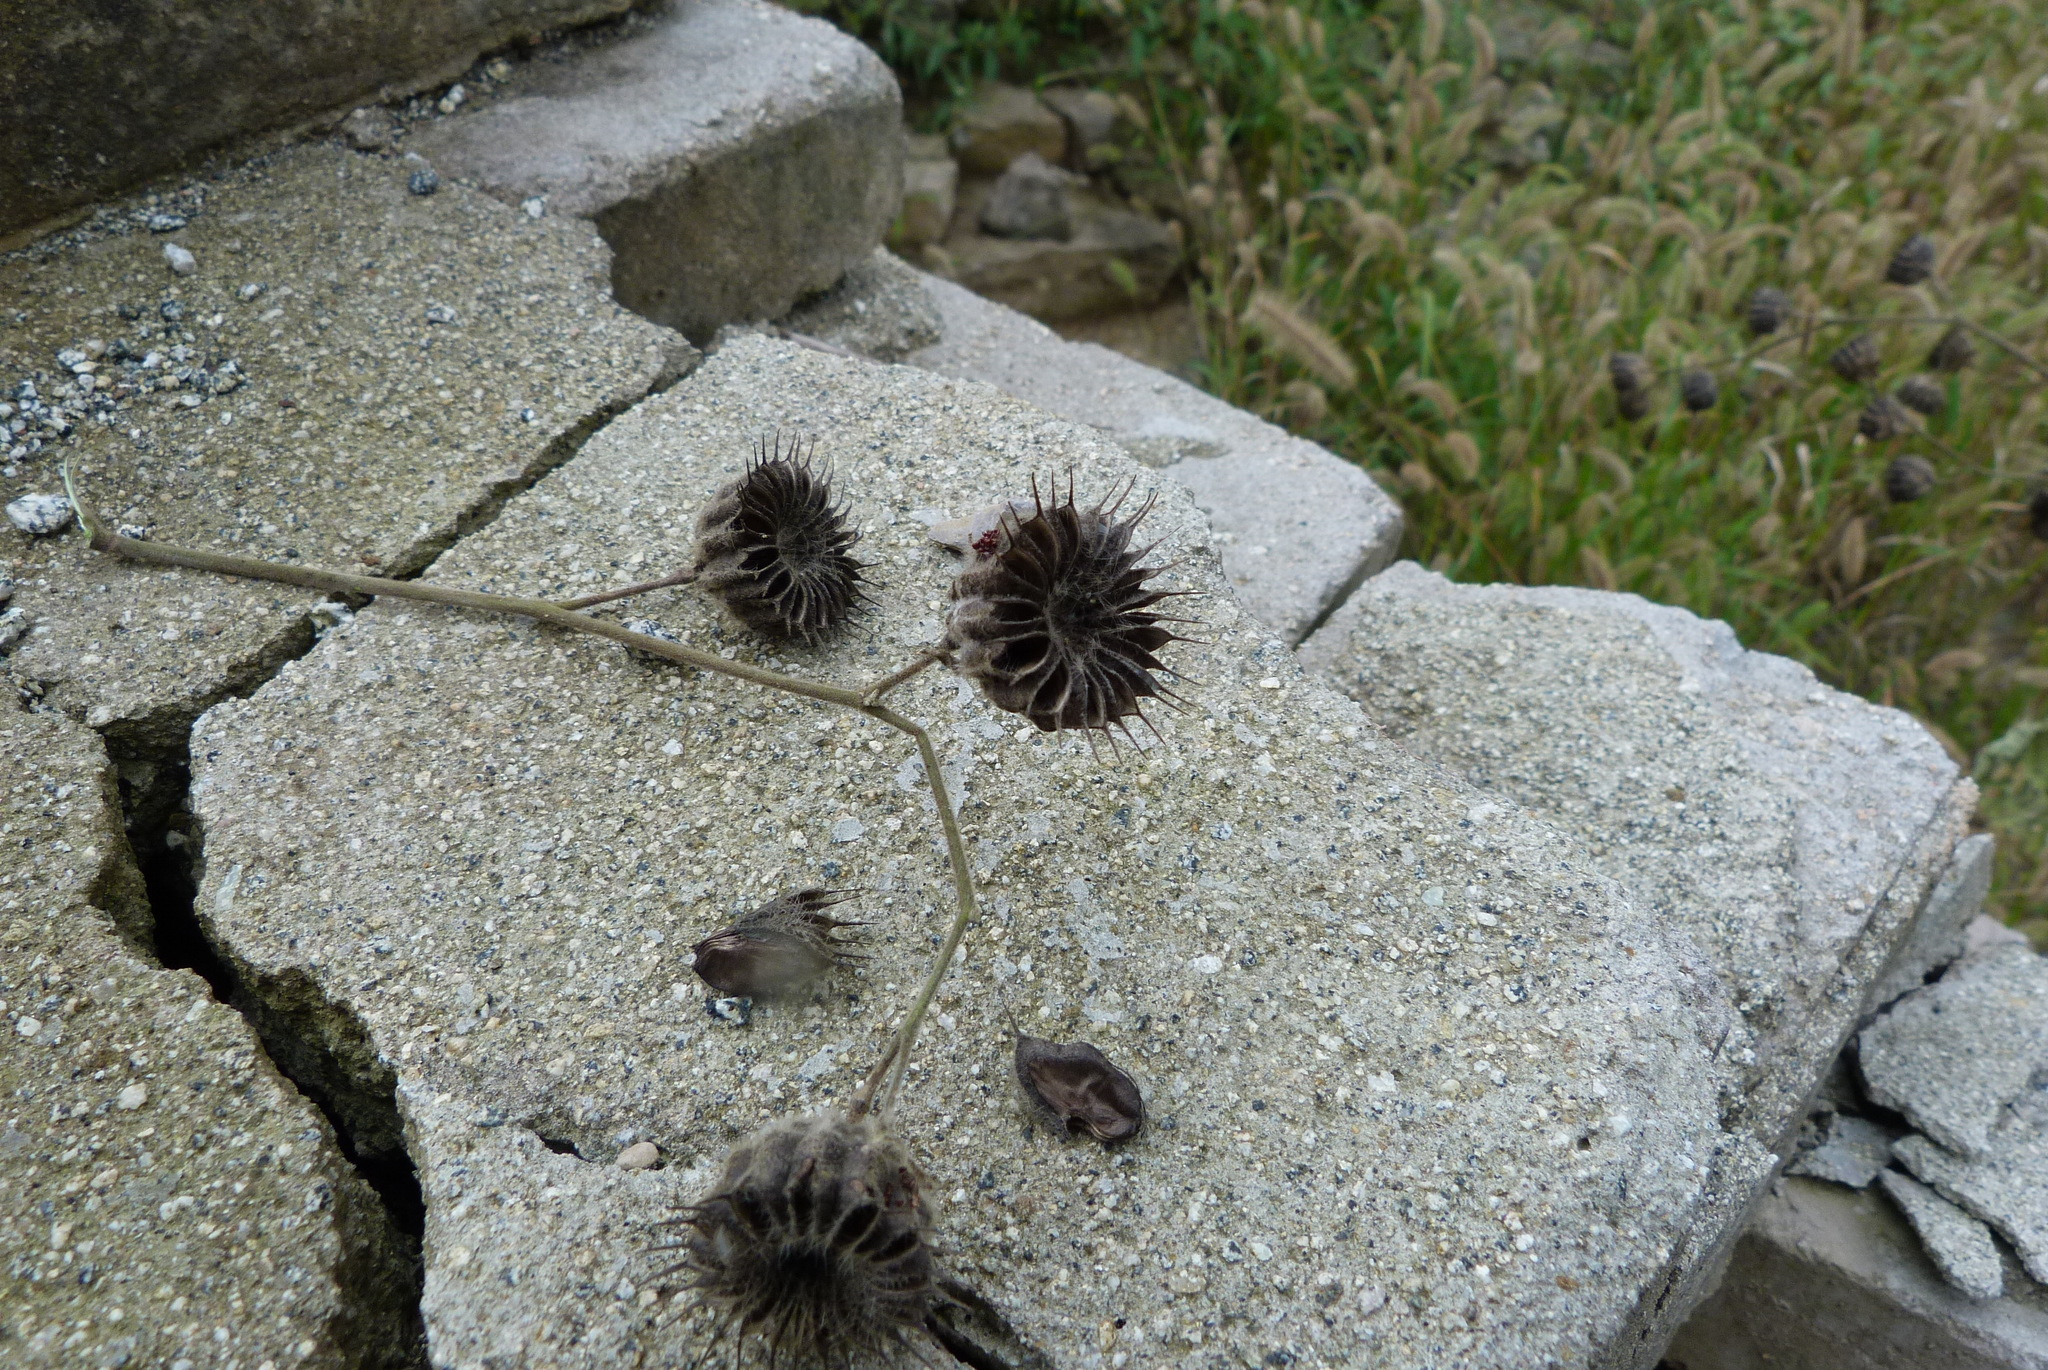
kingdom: Plantae
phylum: Tracheophyta
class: Magnoliopsida
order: Malvales
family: Malvaceae
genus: Abutilon
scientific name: Abutilon theophrasti
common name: Velvetleaf
